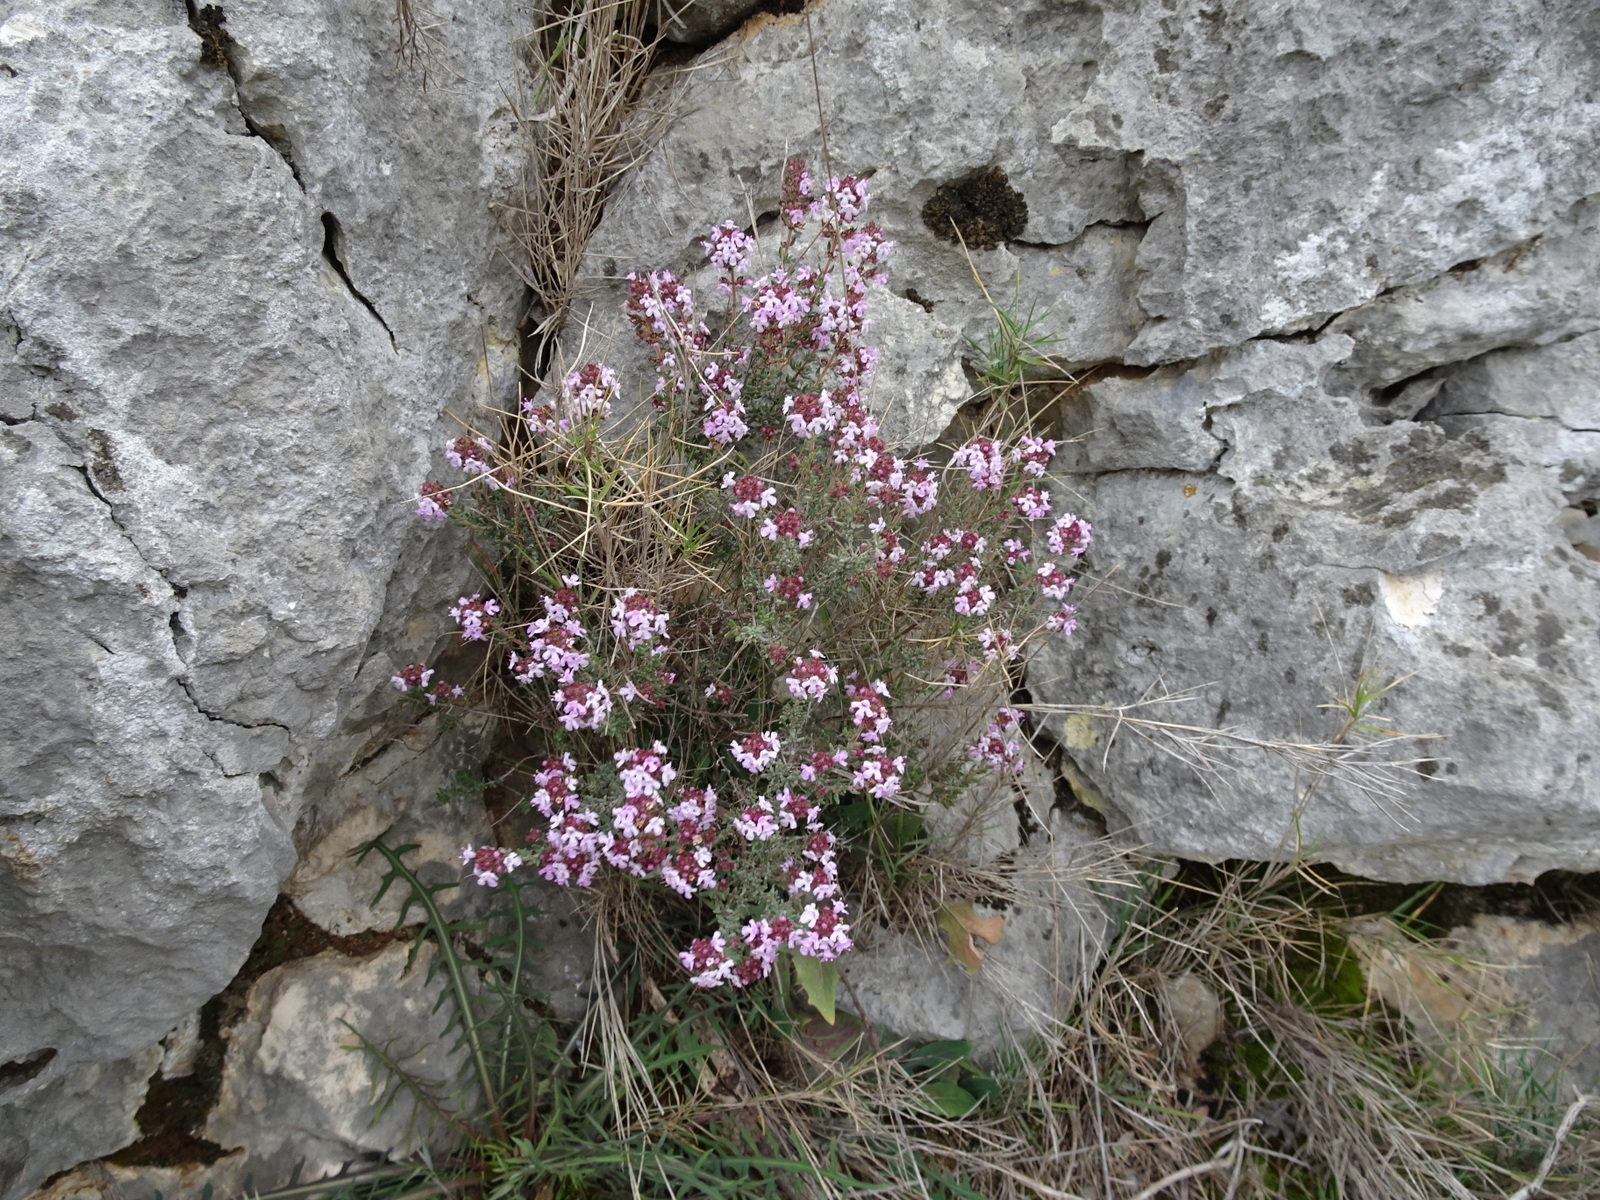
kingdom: Plantae
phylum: Tracheophyta
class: Magnoliopsida
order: Lamiales
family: Lamiaceae
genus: Thymus
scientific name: Thymus vulgaris
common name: Garden thyme
